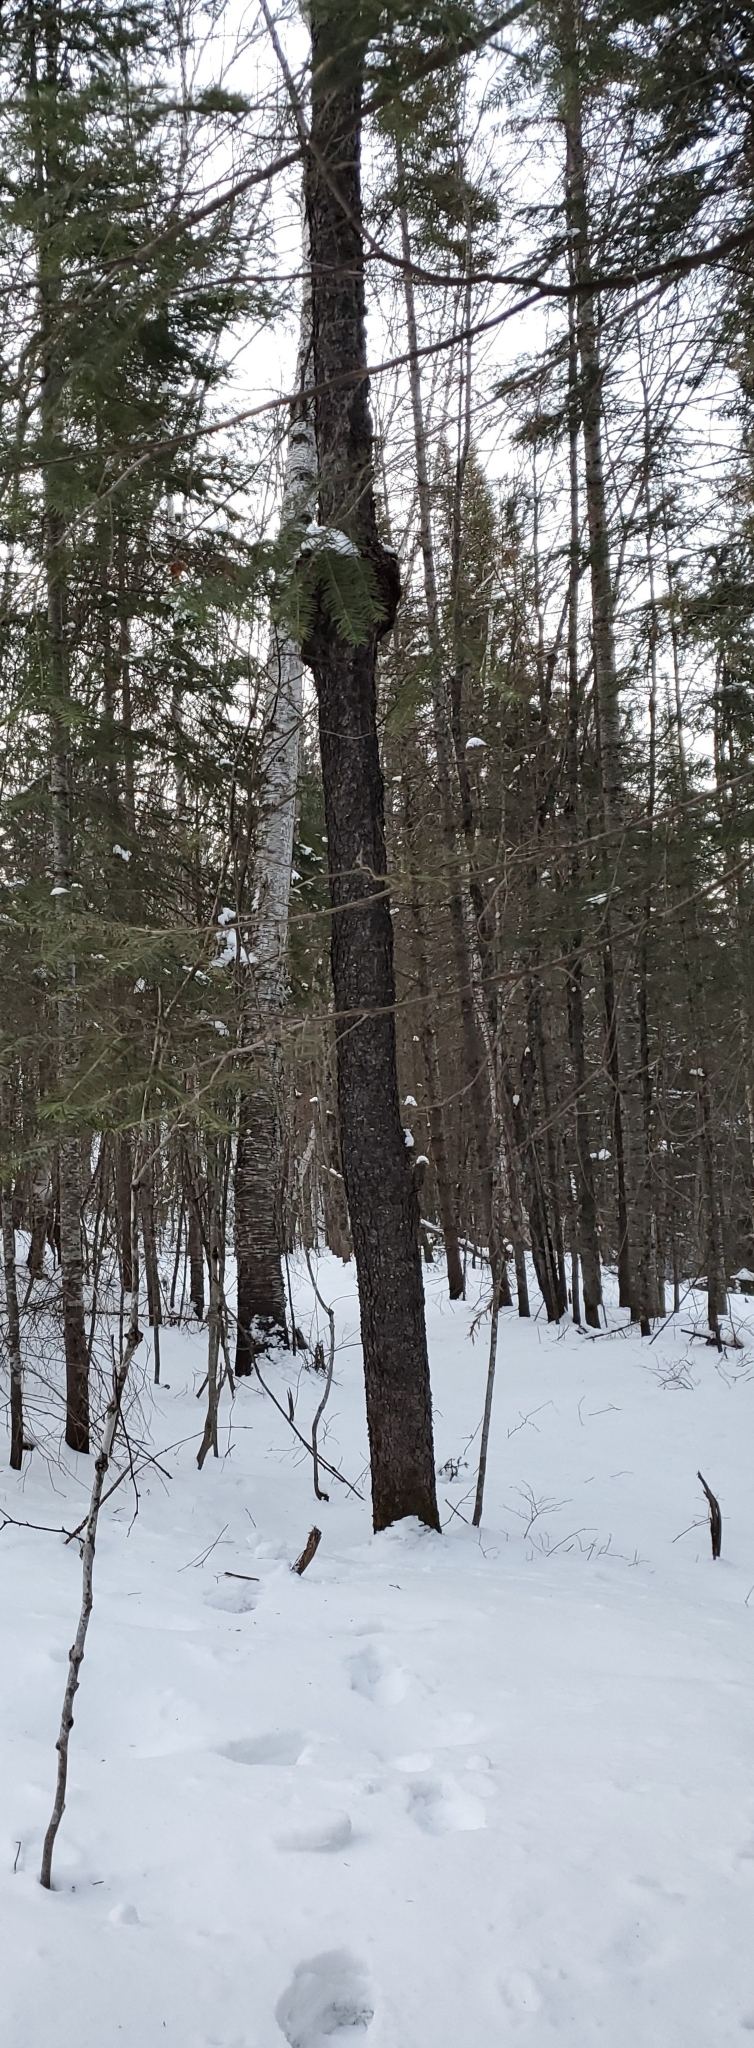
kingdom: Plantae
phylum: Tracheophyta
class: Magnoliopsida
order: Rosales
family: Rosaceae
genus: Prunus
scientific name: Prunus serotina
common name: Black cherry
